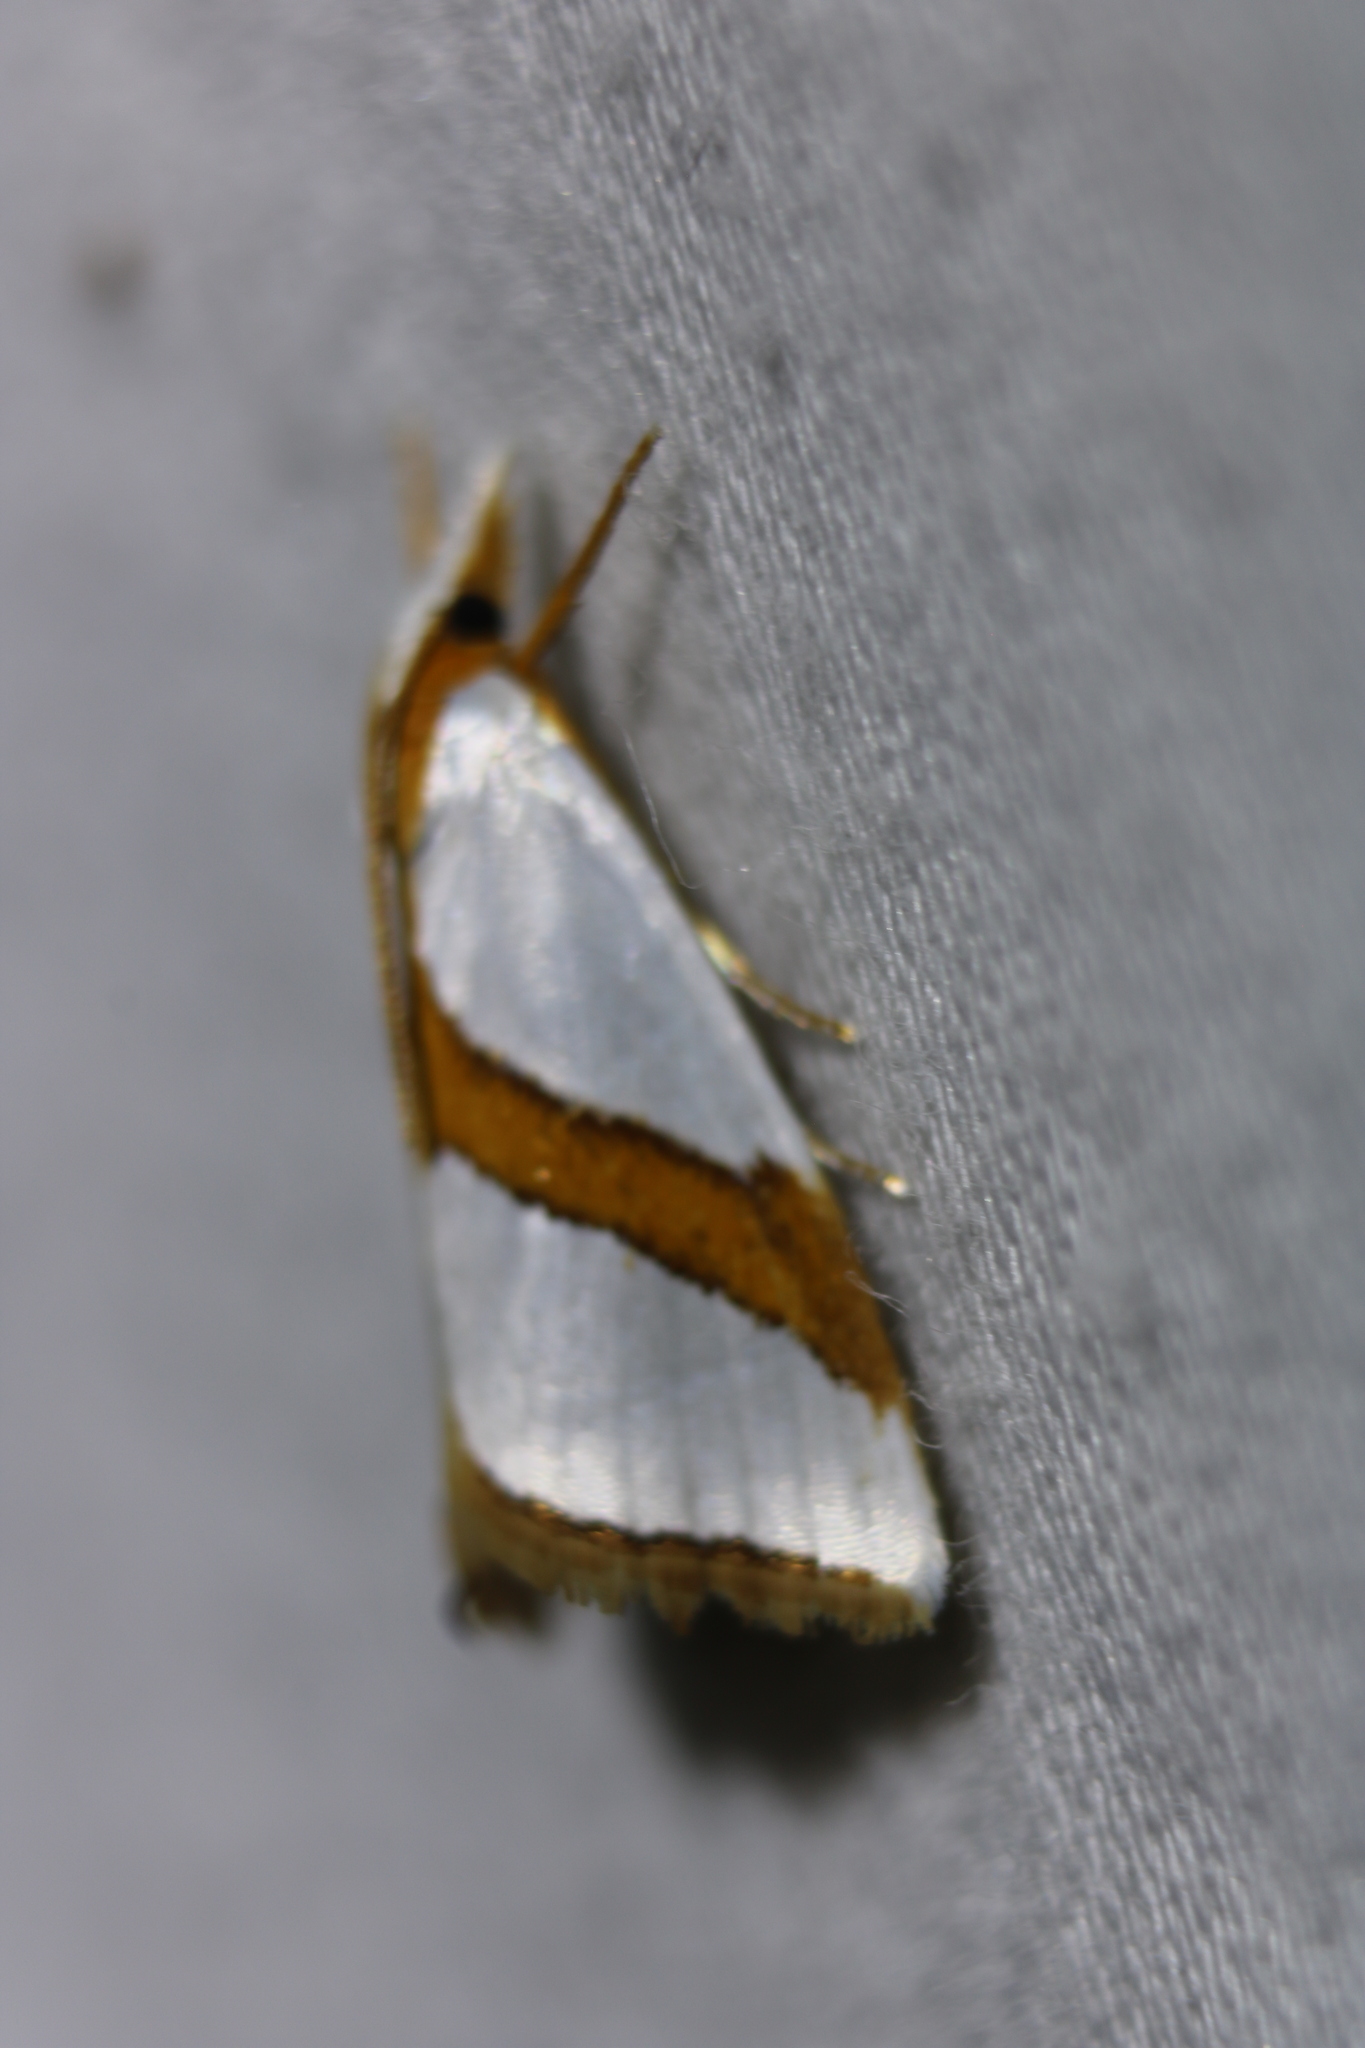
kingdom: Animalia
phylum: Arthropoda
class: Insecta
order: Lepidoptera
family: Crambidae
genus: Vaxi
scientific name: Vaxi critica
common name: Straight-lined vaxi moth
